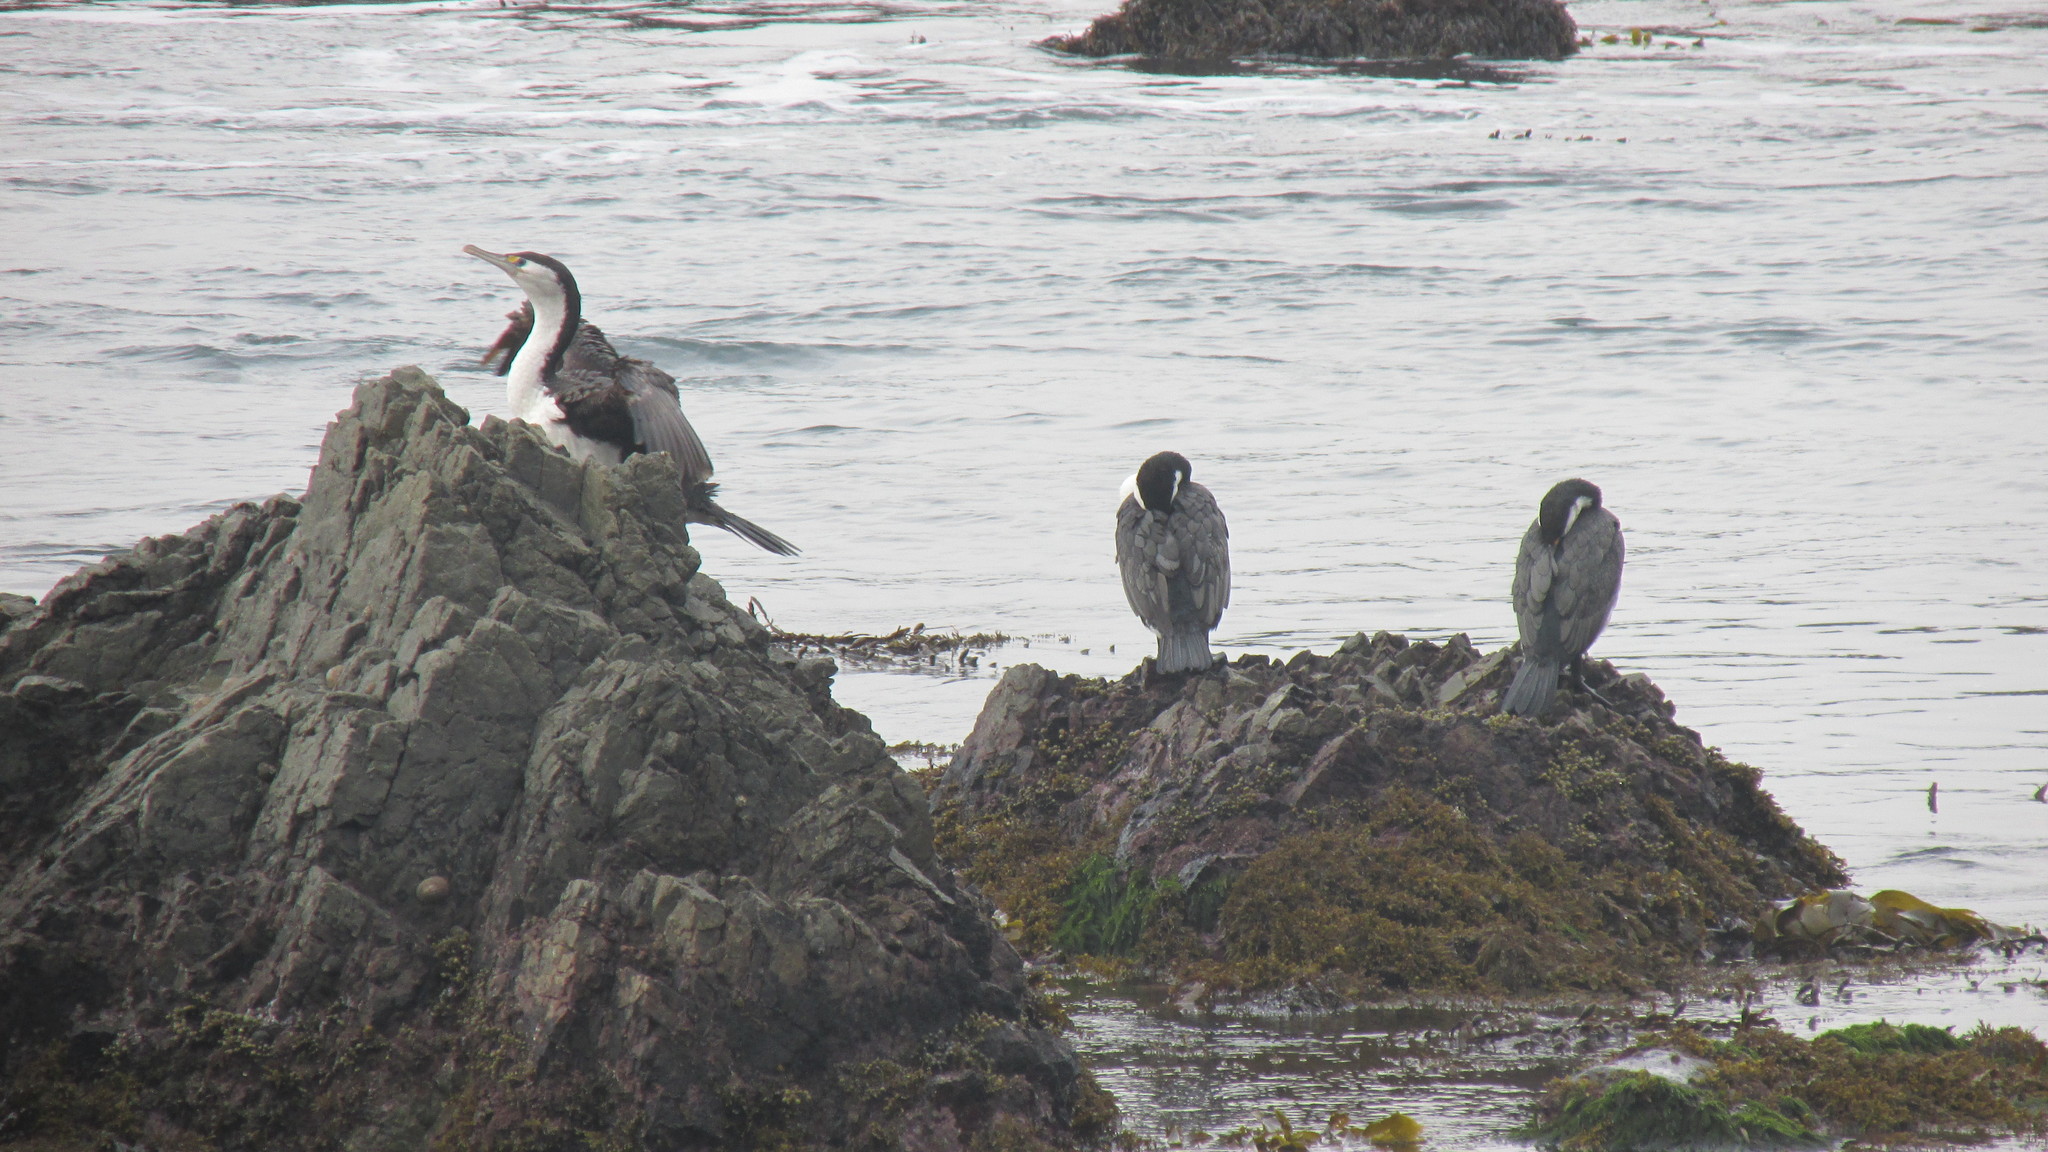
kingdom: Animalia
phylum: Chordata
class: Aves
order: Suliformes
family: Phalacrocoracidae
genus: Phalacrocorax
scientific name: Phalacrocorax varius
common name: Pied cormorant
